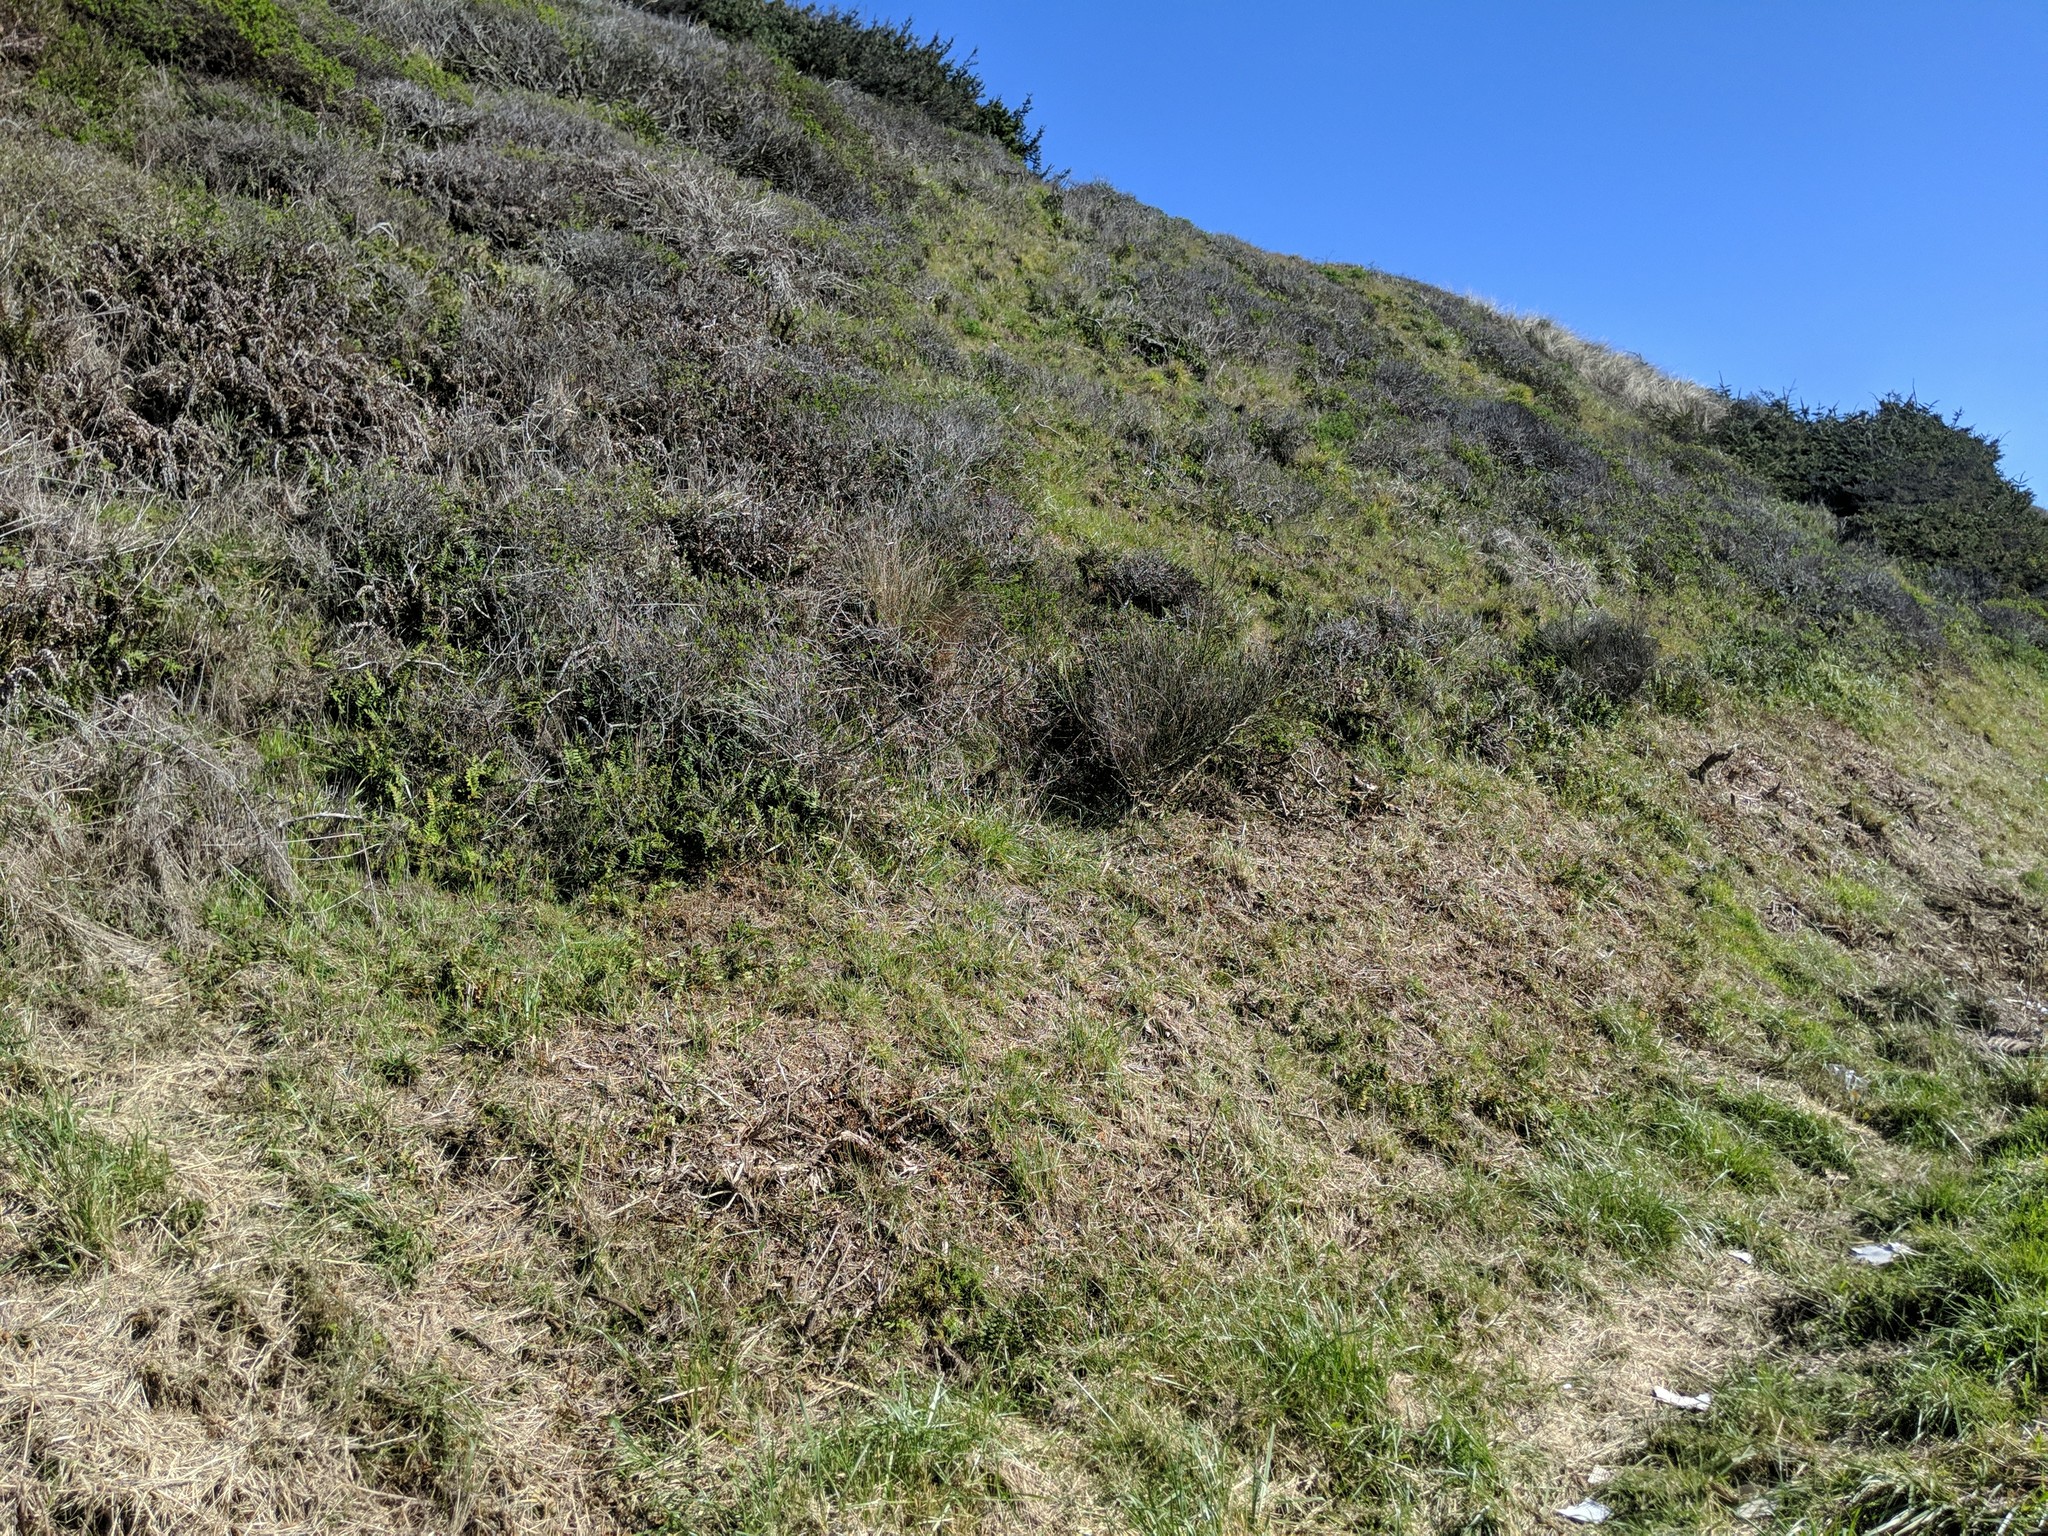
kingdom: Plantae
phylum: Tracheophyta
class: Polypodiopsida
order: Polypodiales
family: Polypodiaceae
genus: Polypodium
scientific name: Polypodium calirhiza
